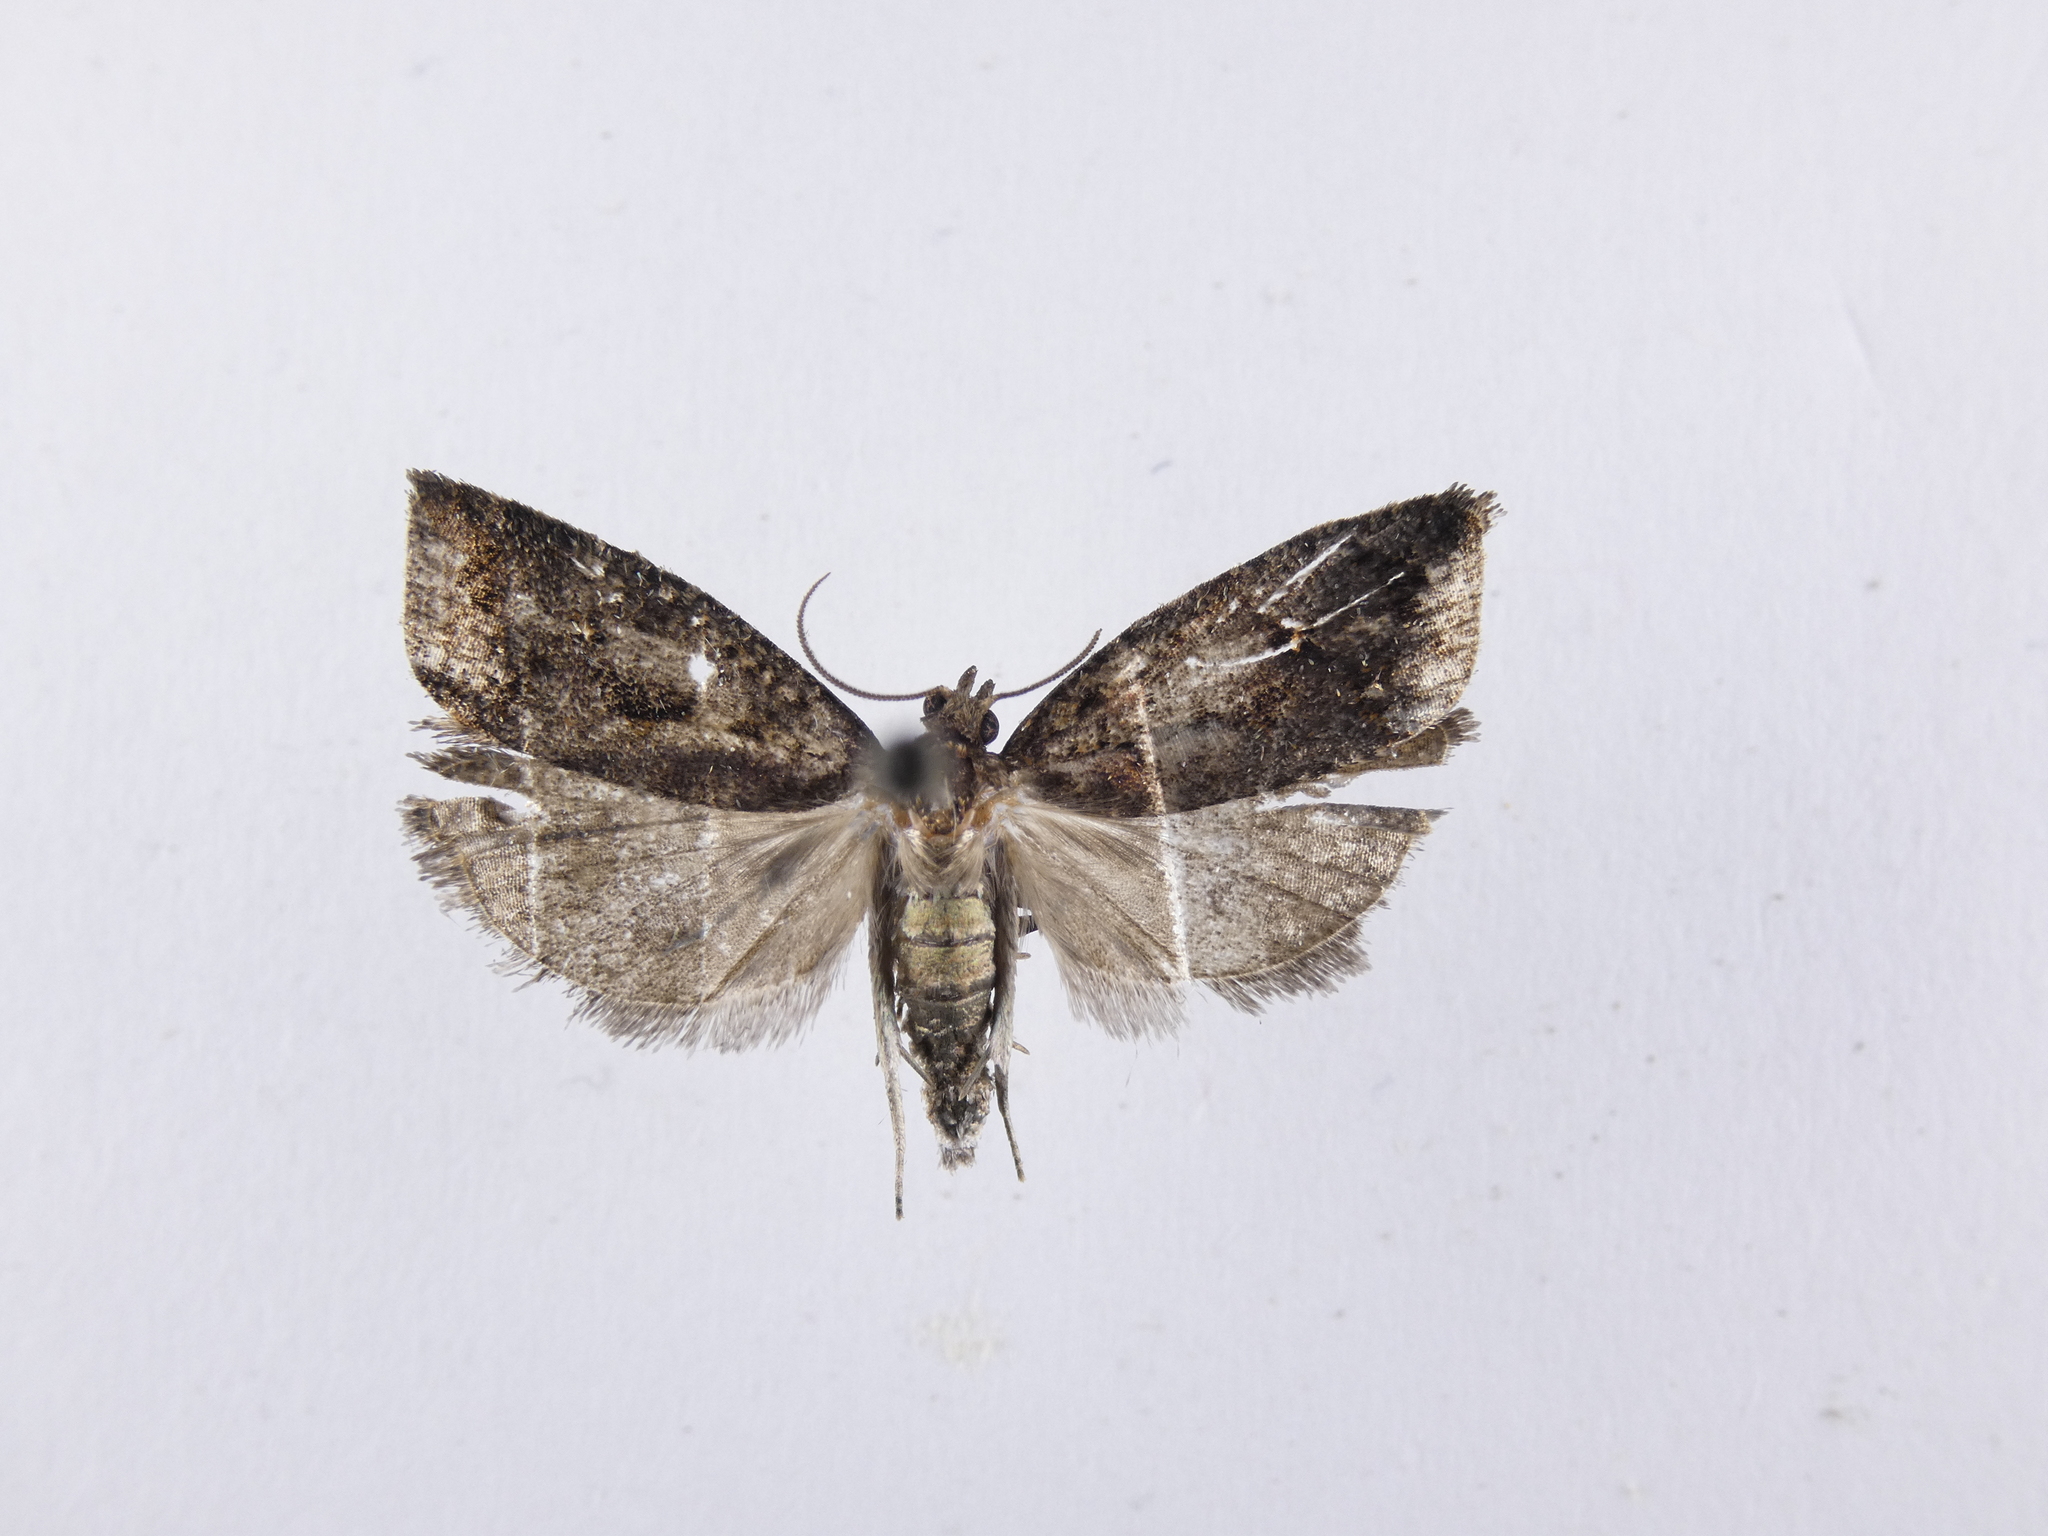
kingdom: Animalia
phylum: Arthropoda
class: Insecta
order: Lepidoptera
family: Tortricidae
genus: Cryptaspasma
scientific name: Cryptaspasma querula
